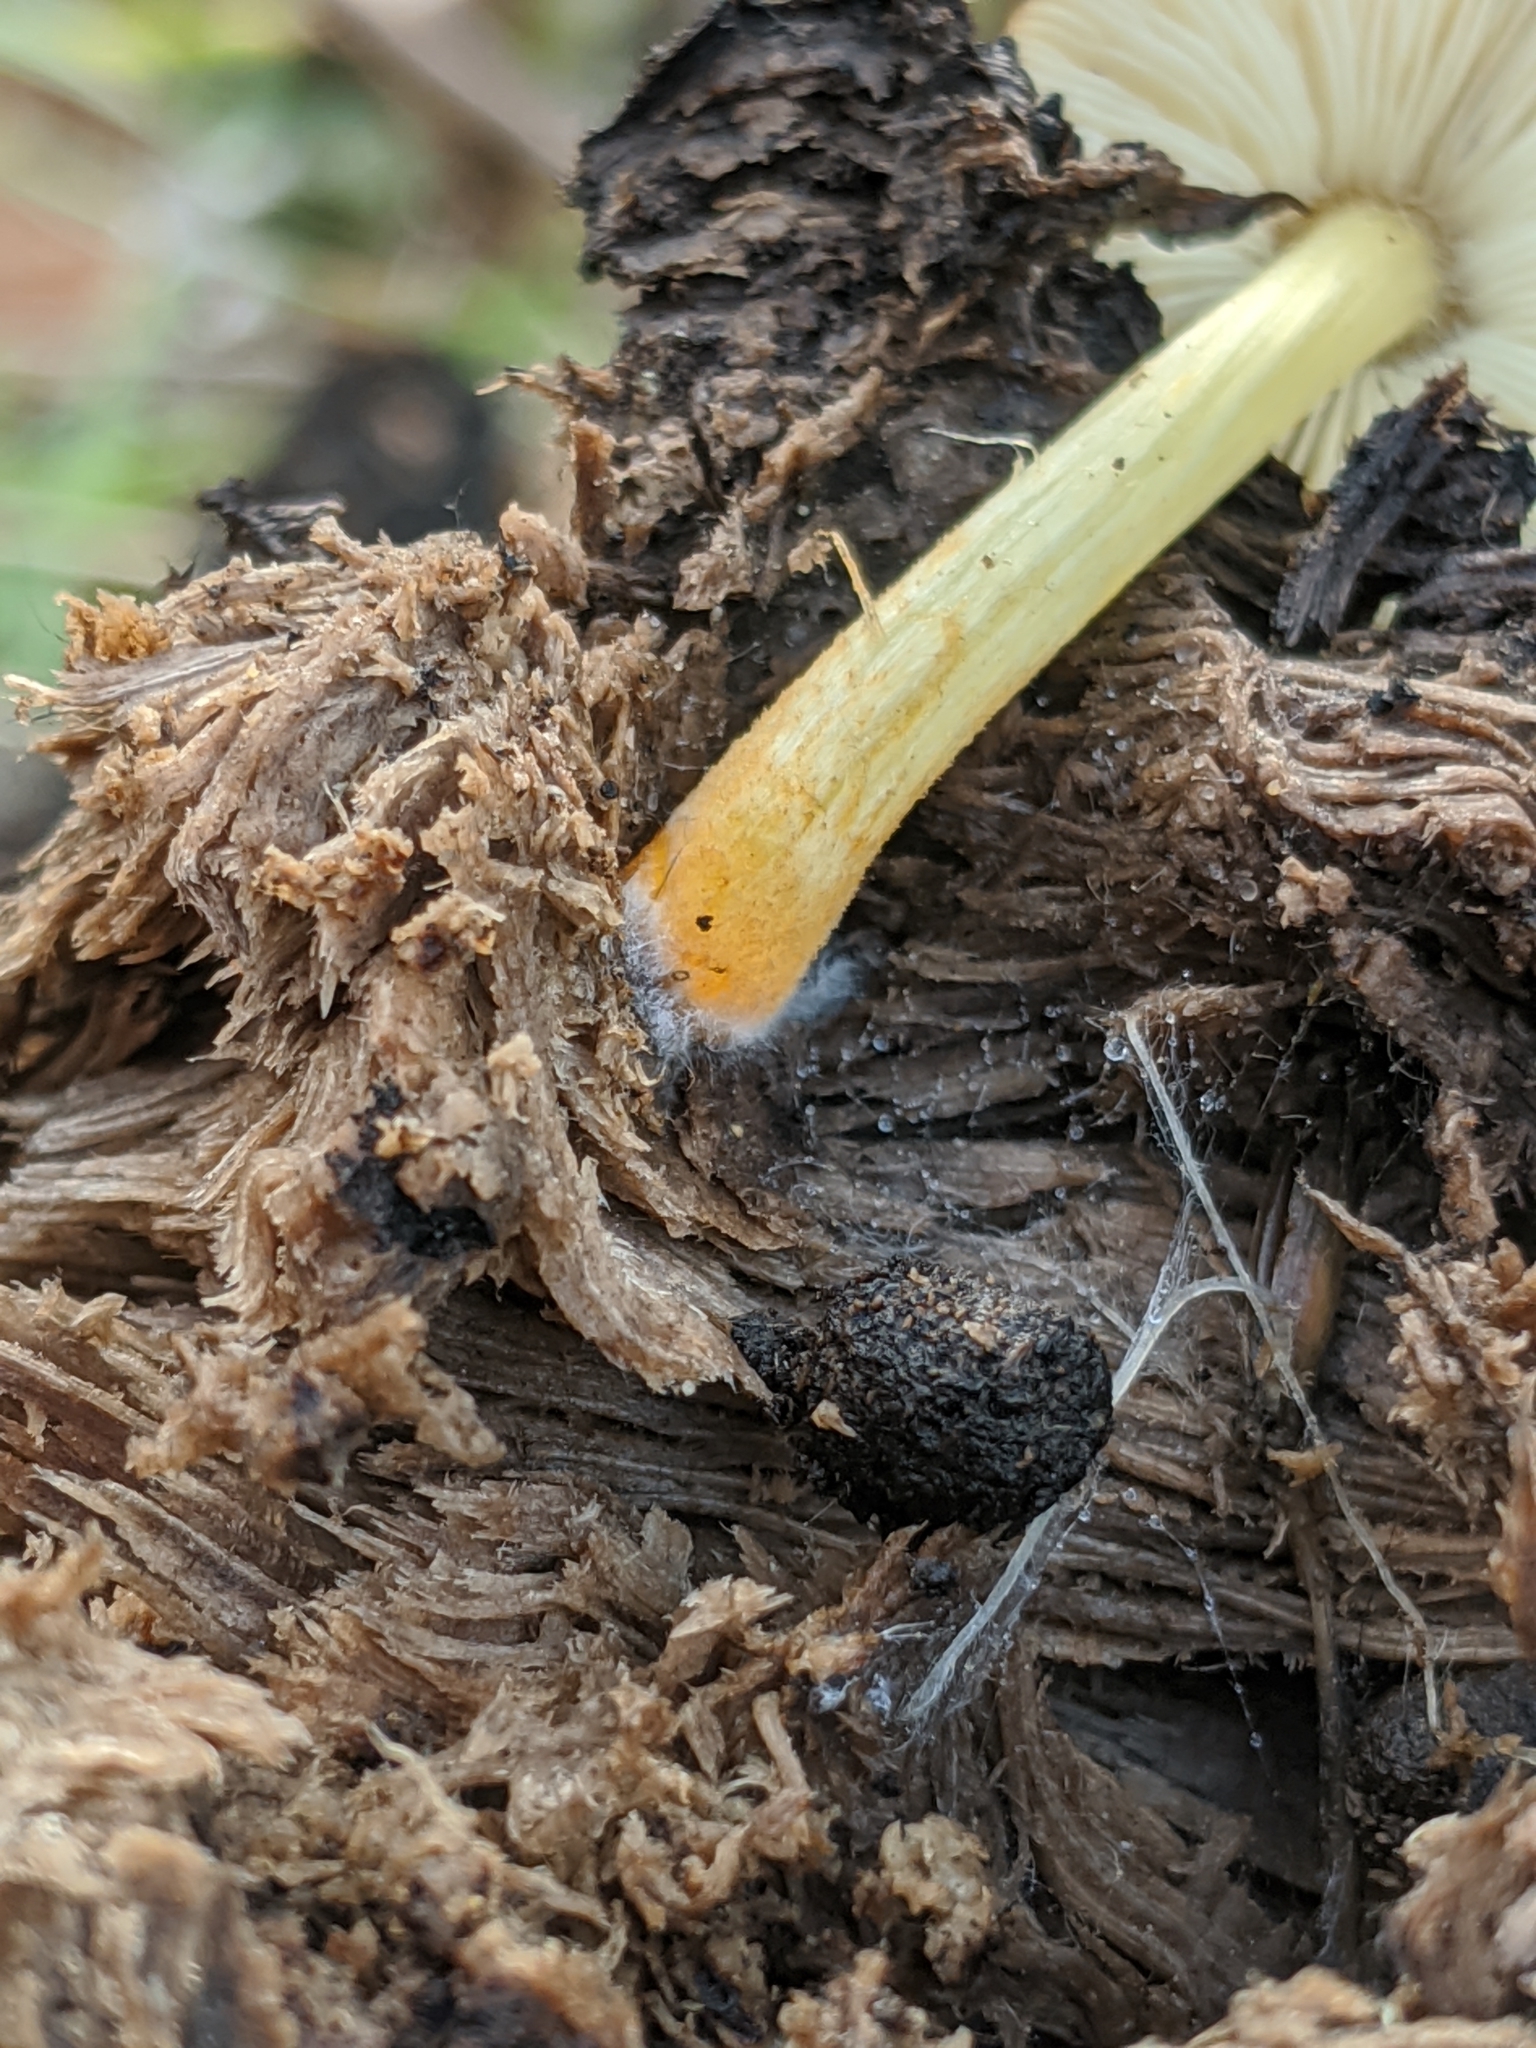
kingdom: Fungi
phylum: Basidiomycota
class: Agaricomycetes
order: Agaricales
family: Pluteaceae
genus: Pluteus
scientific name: Pluteus romellii
